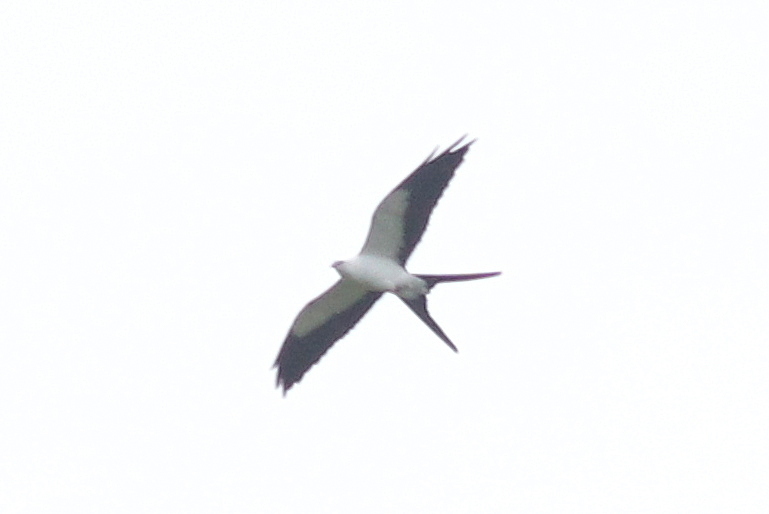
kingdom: Animalia
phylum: Chordata
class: Aves
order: Accipitriformes
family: Accipitridae
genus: Elanoides
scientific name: Elanoides forficatus
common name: Swallow-tailed kite
